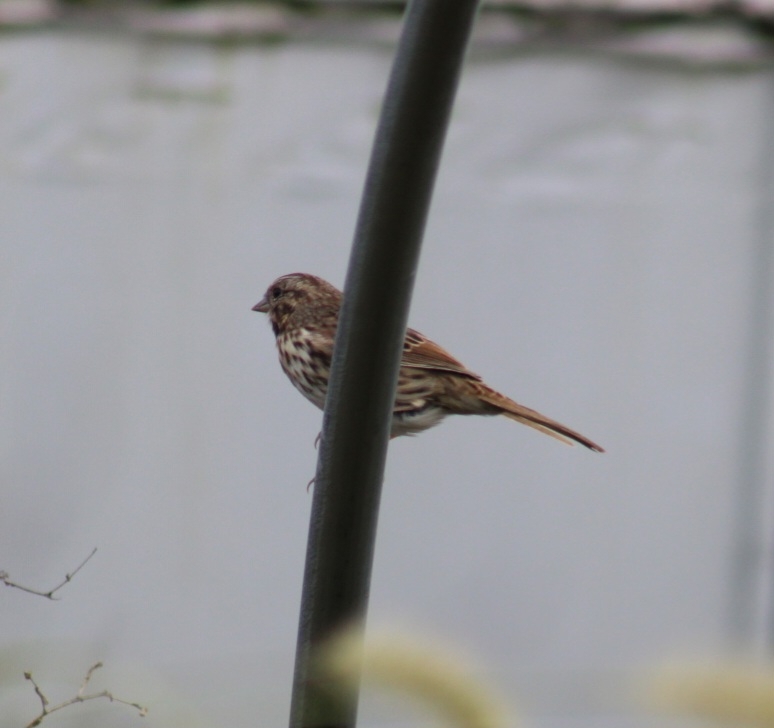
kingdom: Animalia
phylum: Chordata
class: Aves
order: Passeriformes
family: Passerellidae
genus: Melospiza
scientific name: Melospiza melodia
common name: Song sparrow
